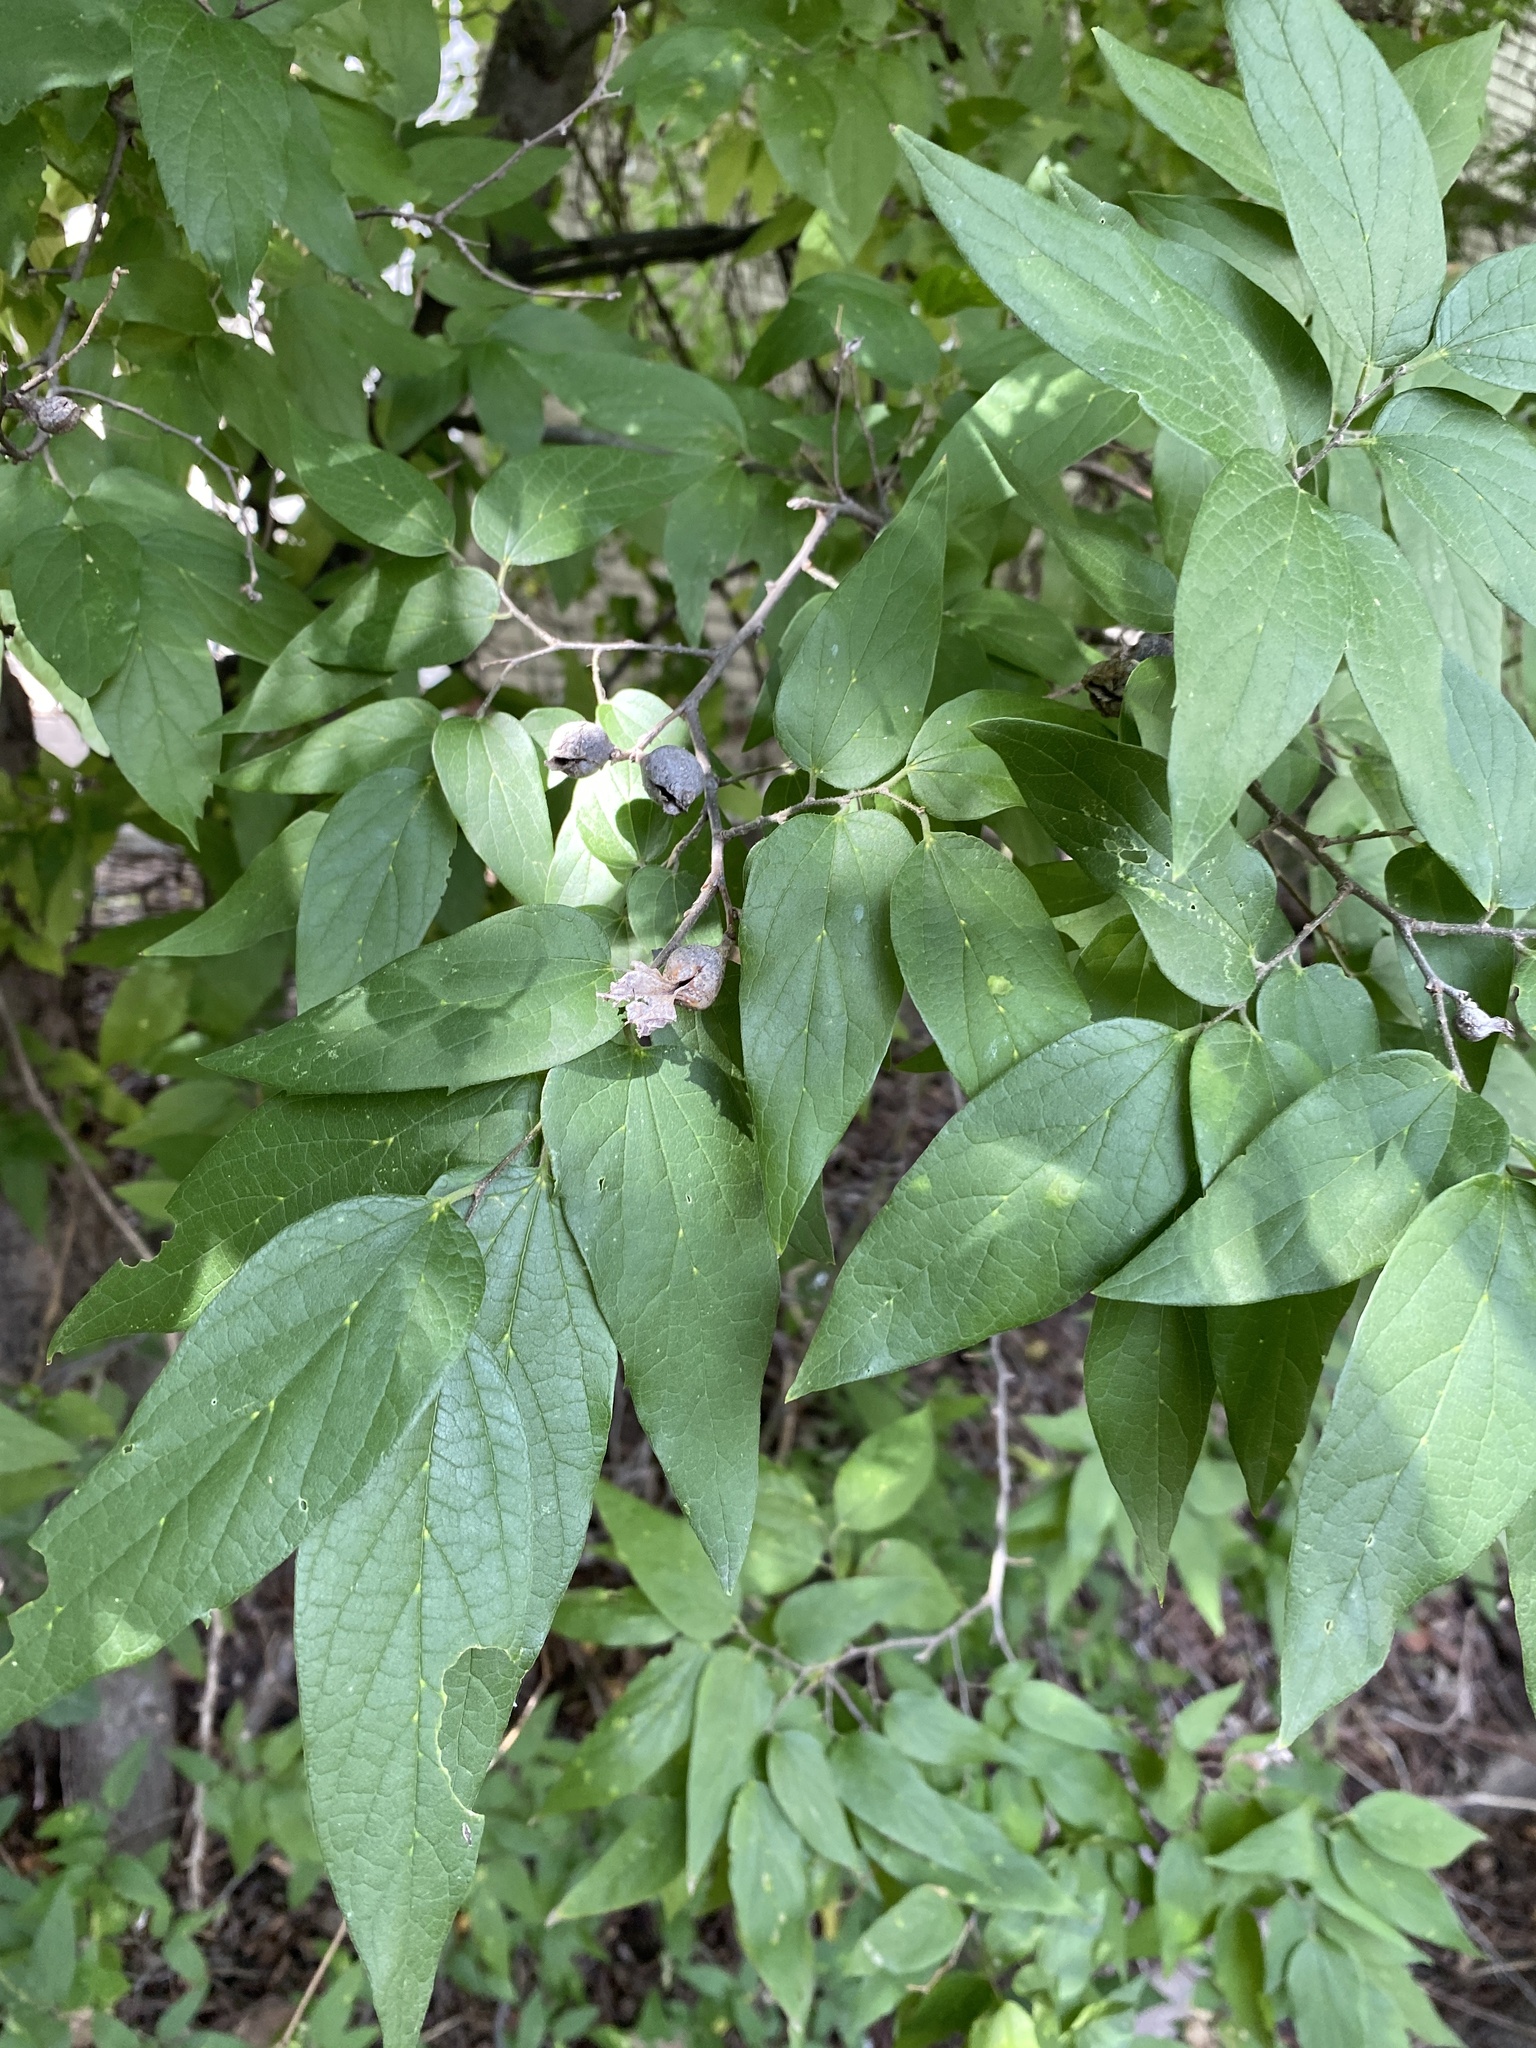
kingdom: Plantae
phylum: Tracheophyta
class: Magnoliopsida
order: Rosales
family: Cannabaceae
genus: Celtis
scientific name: Celtis laevigata
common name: Sugarberry
